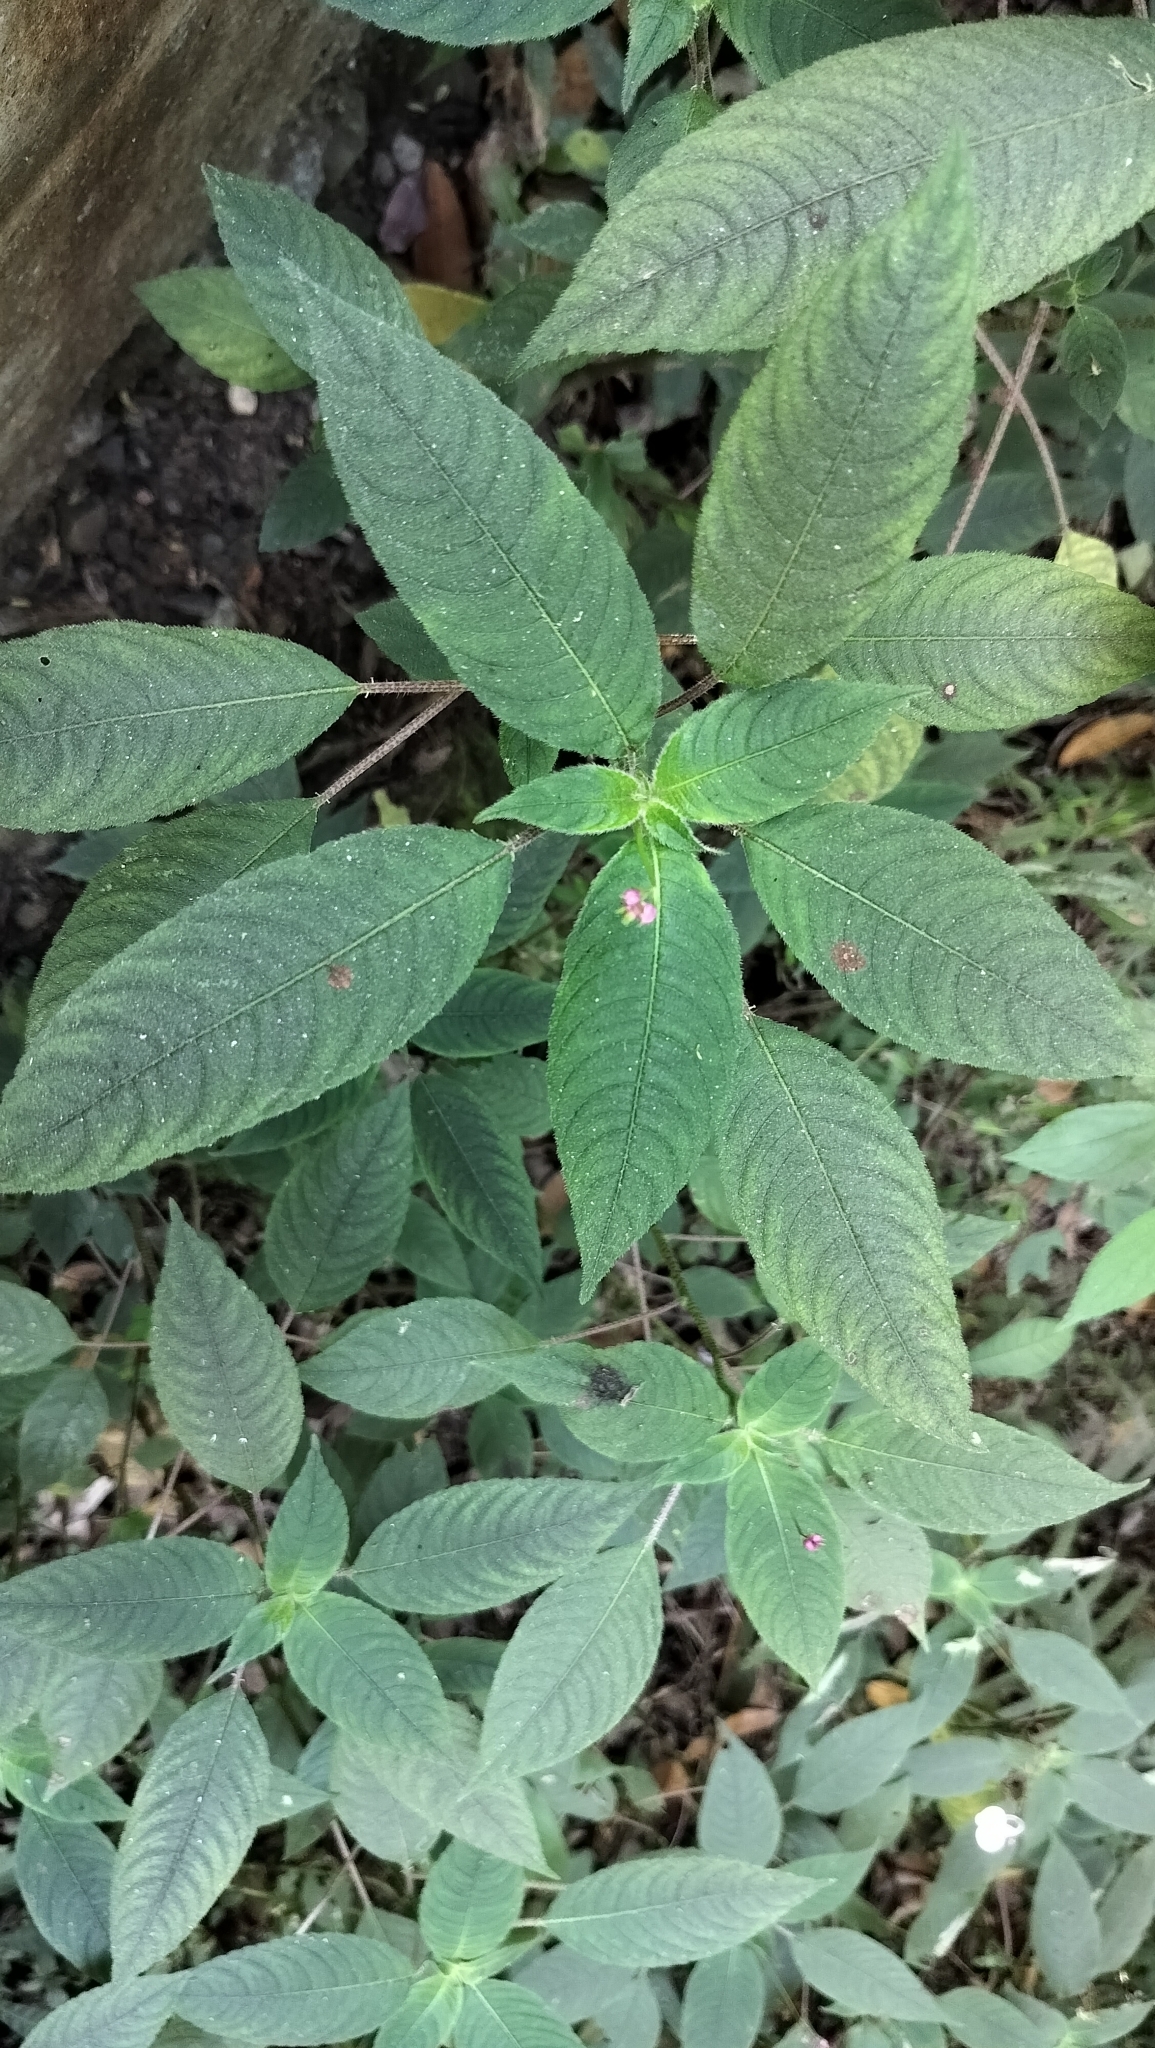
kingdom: Plantae
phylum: Tracheophyta
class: Magnoliopsida
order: Ericales
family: Balsaminaceae
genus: Impatiens
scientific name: Impatiens maculata
